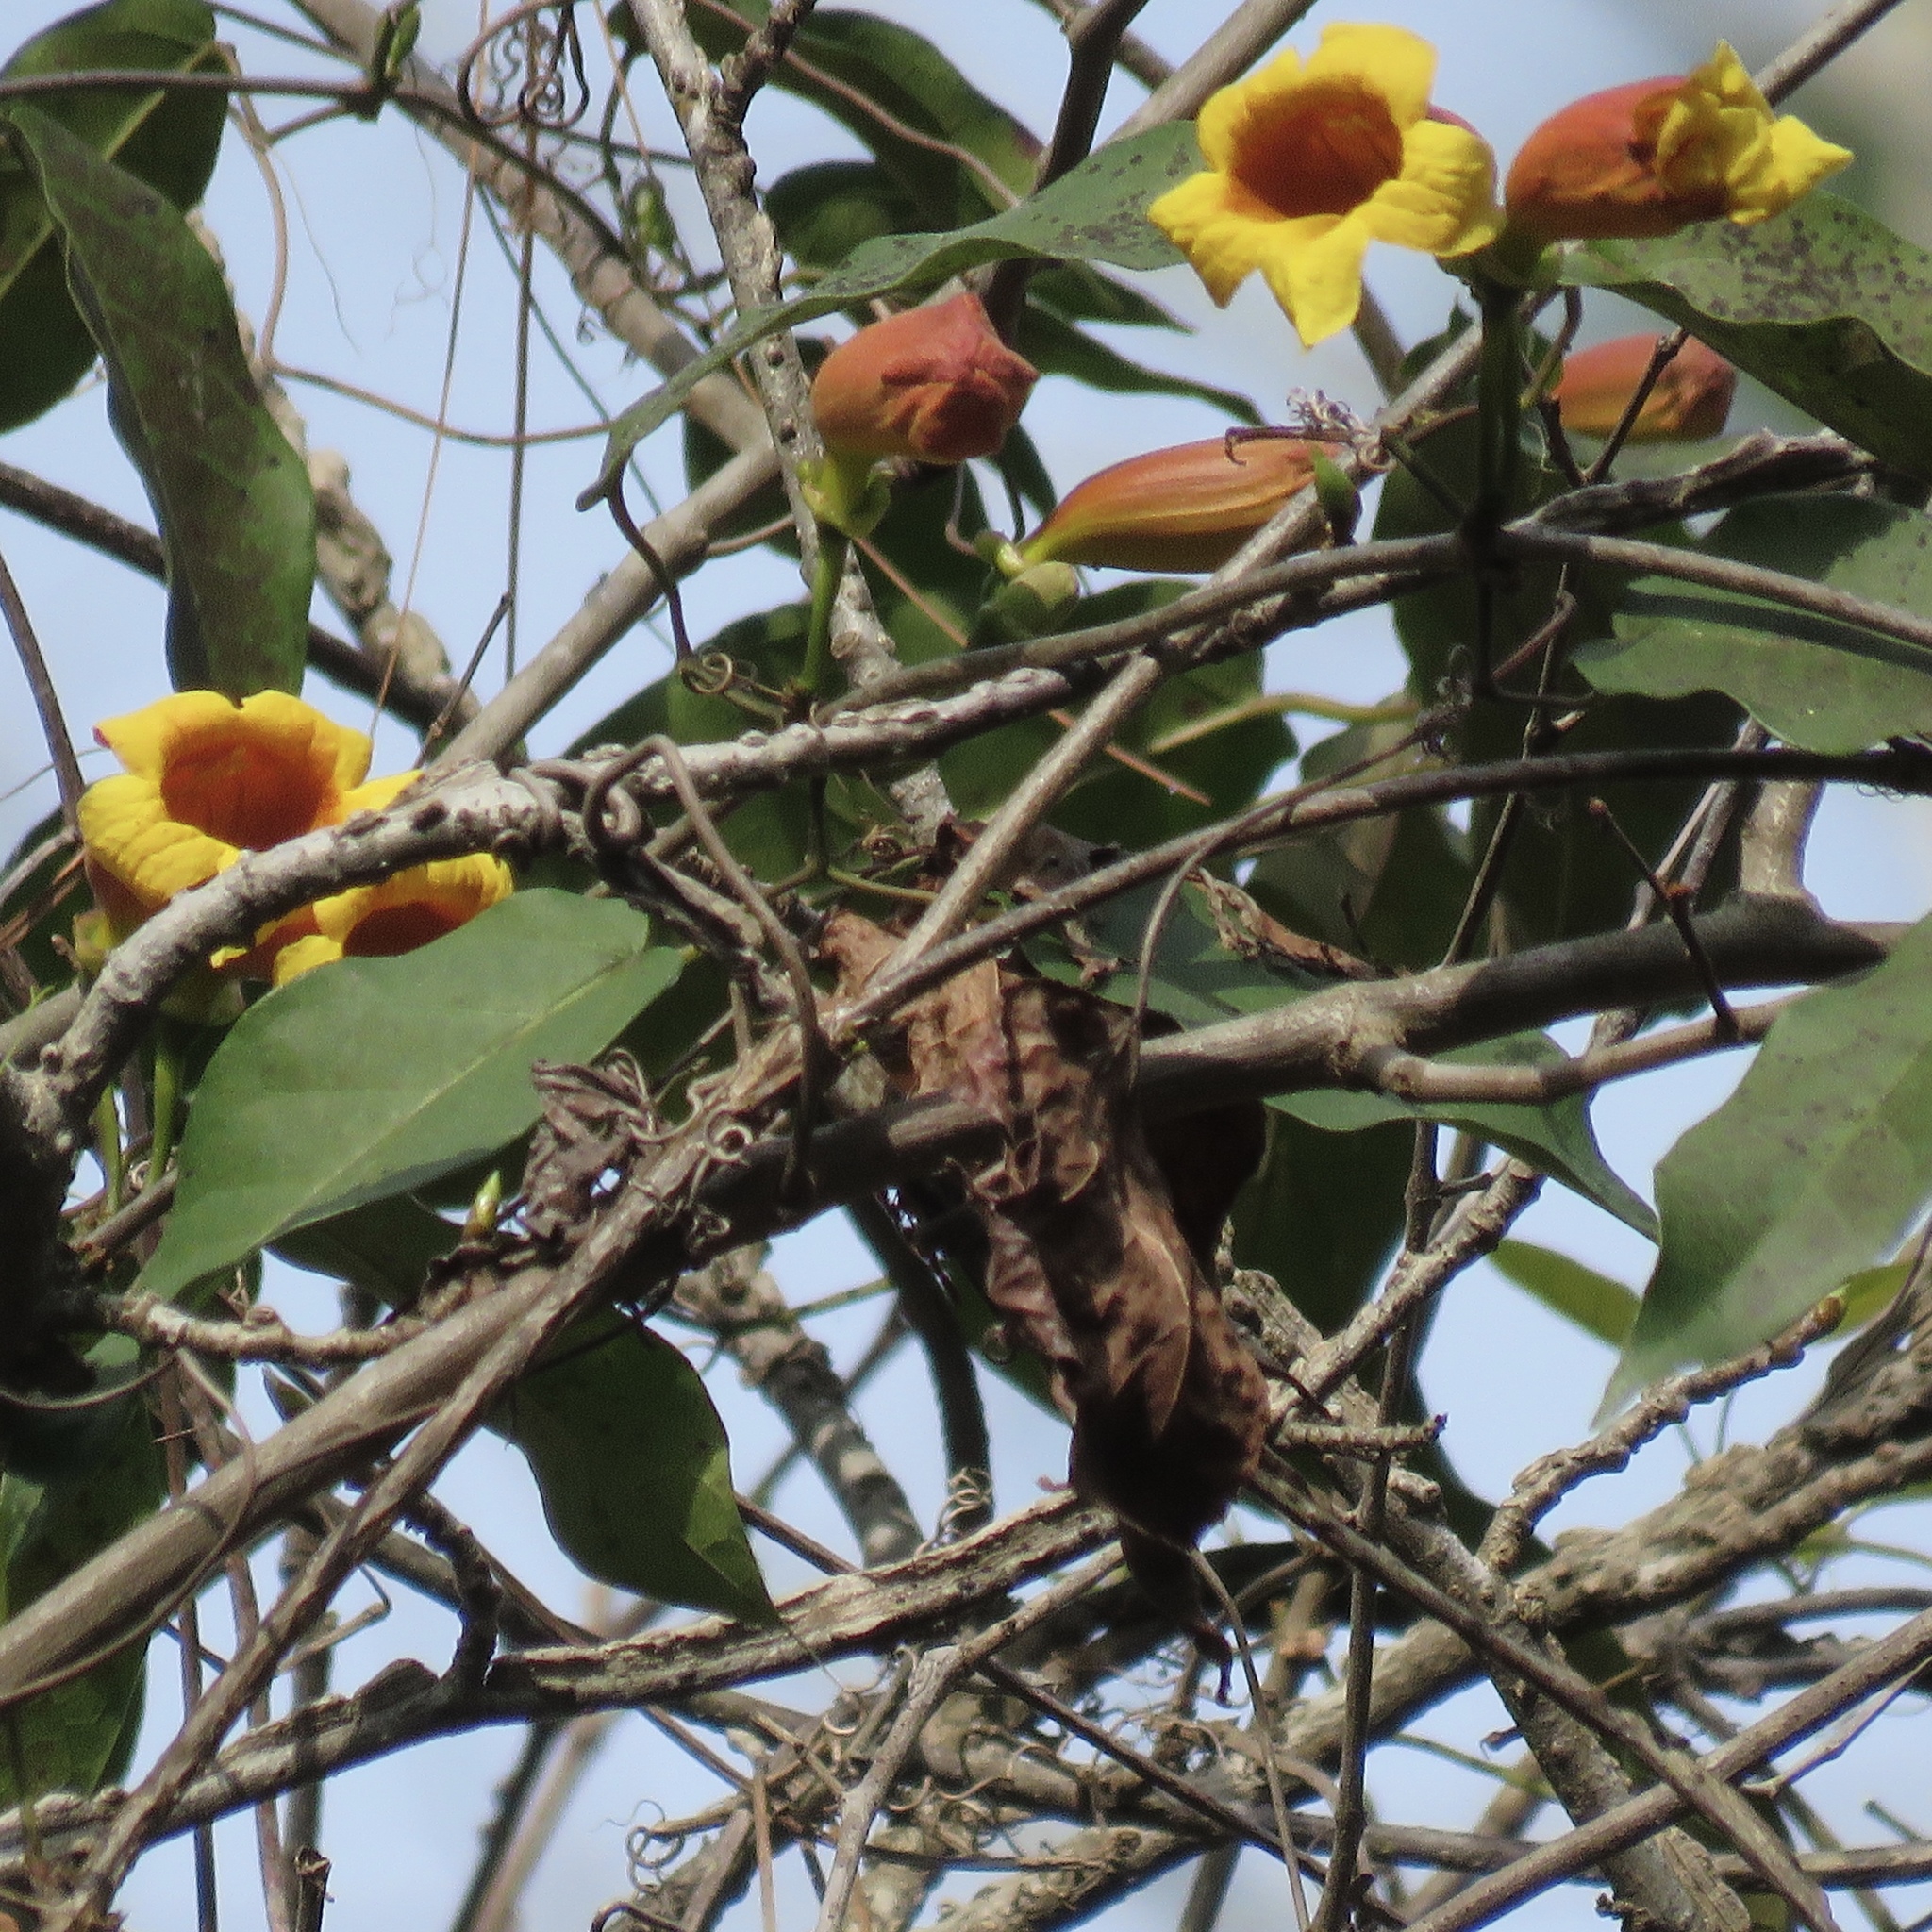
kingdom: Plantae
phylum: Tracheophyta
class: Magnoliopsida
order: Lamiales
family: Bignoniaceae
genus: Bignonia
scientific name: Bignonia capreolata
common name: Crossvine
